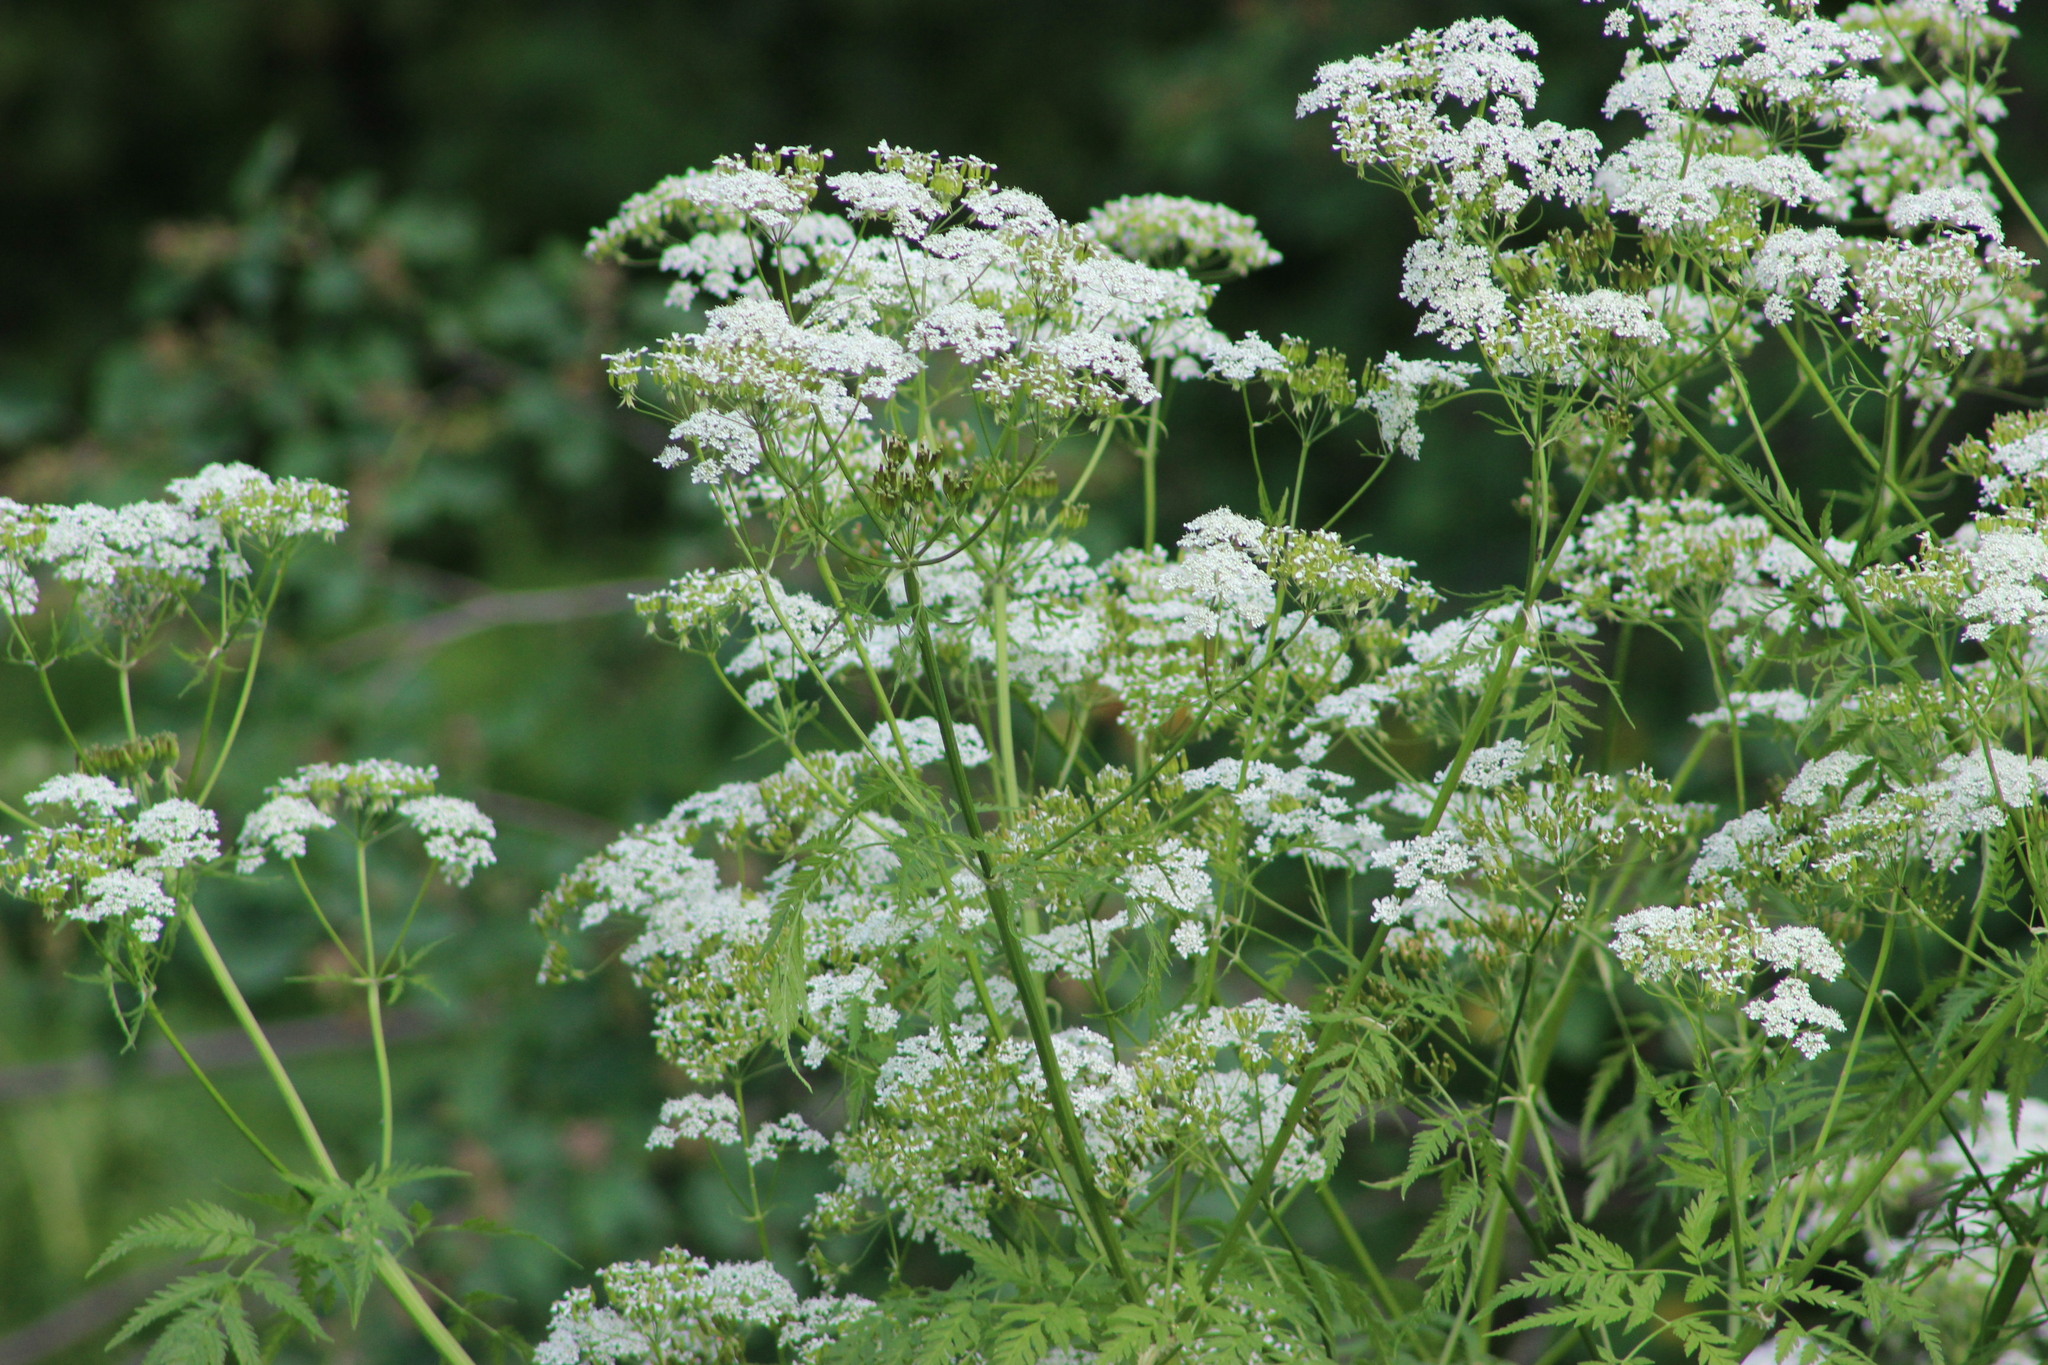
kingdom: Plantae
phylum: Tracheophyta
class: Magnoliopsida
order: Apiales
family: Apiaceae
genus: Anthriscus
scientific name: Anthriscus sylvestris
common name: Cow parsley
